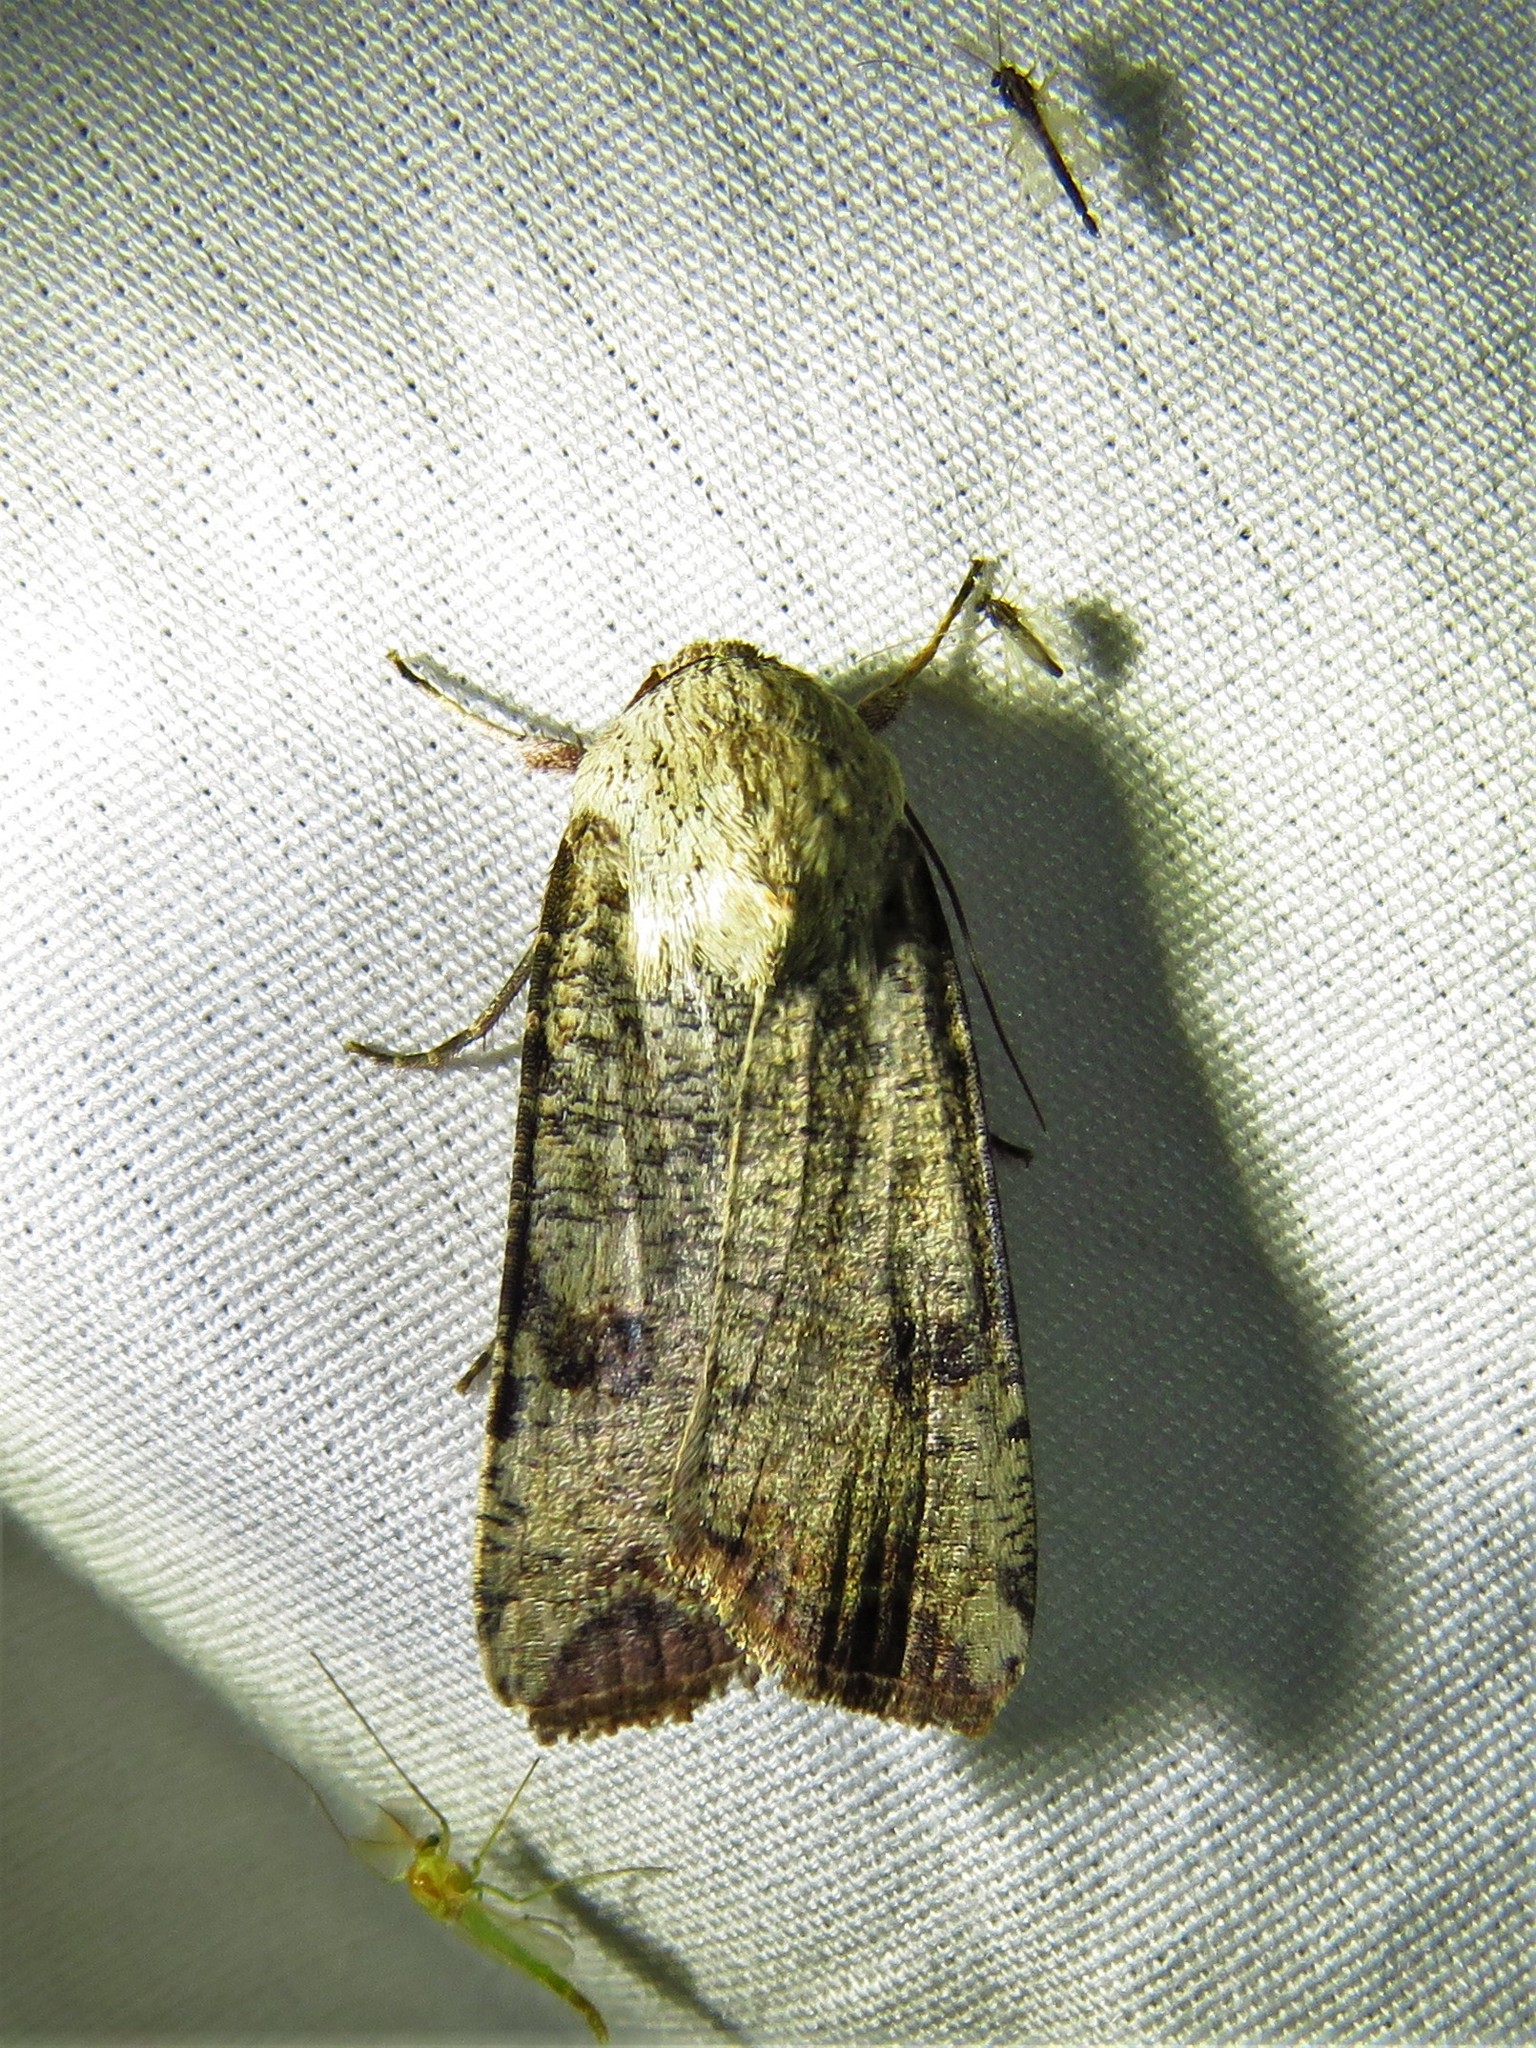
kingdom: Animalia
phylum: Arthropoda
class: Insecta
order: Lepidoptera
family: Noctuidae
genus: Anicla
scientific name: Anicla infecta
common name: Green cutworm
